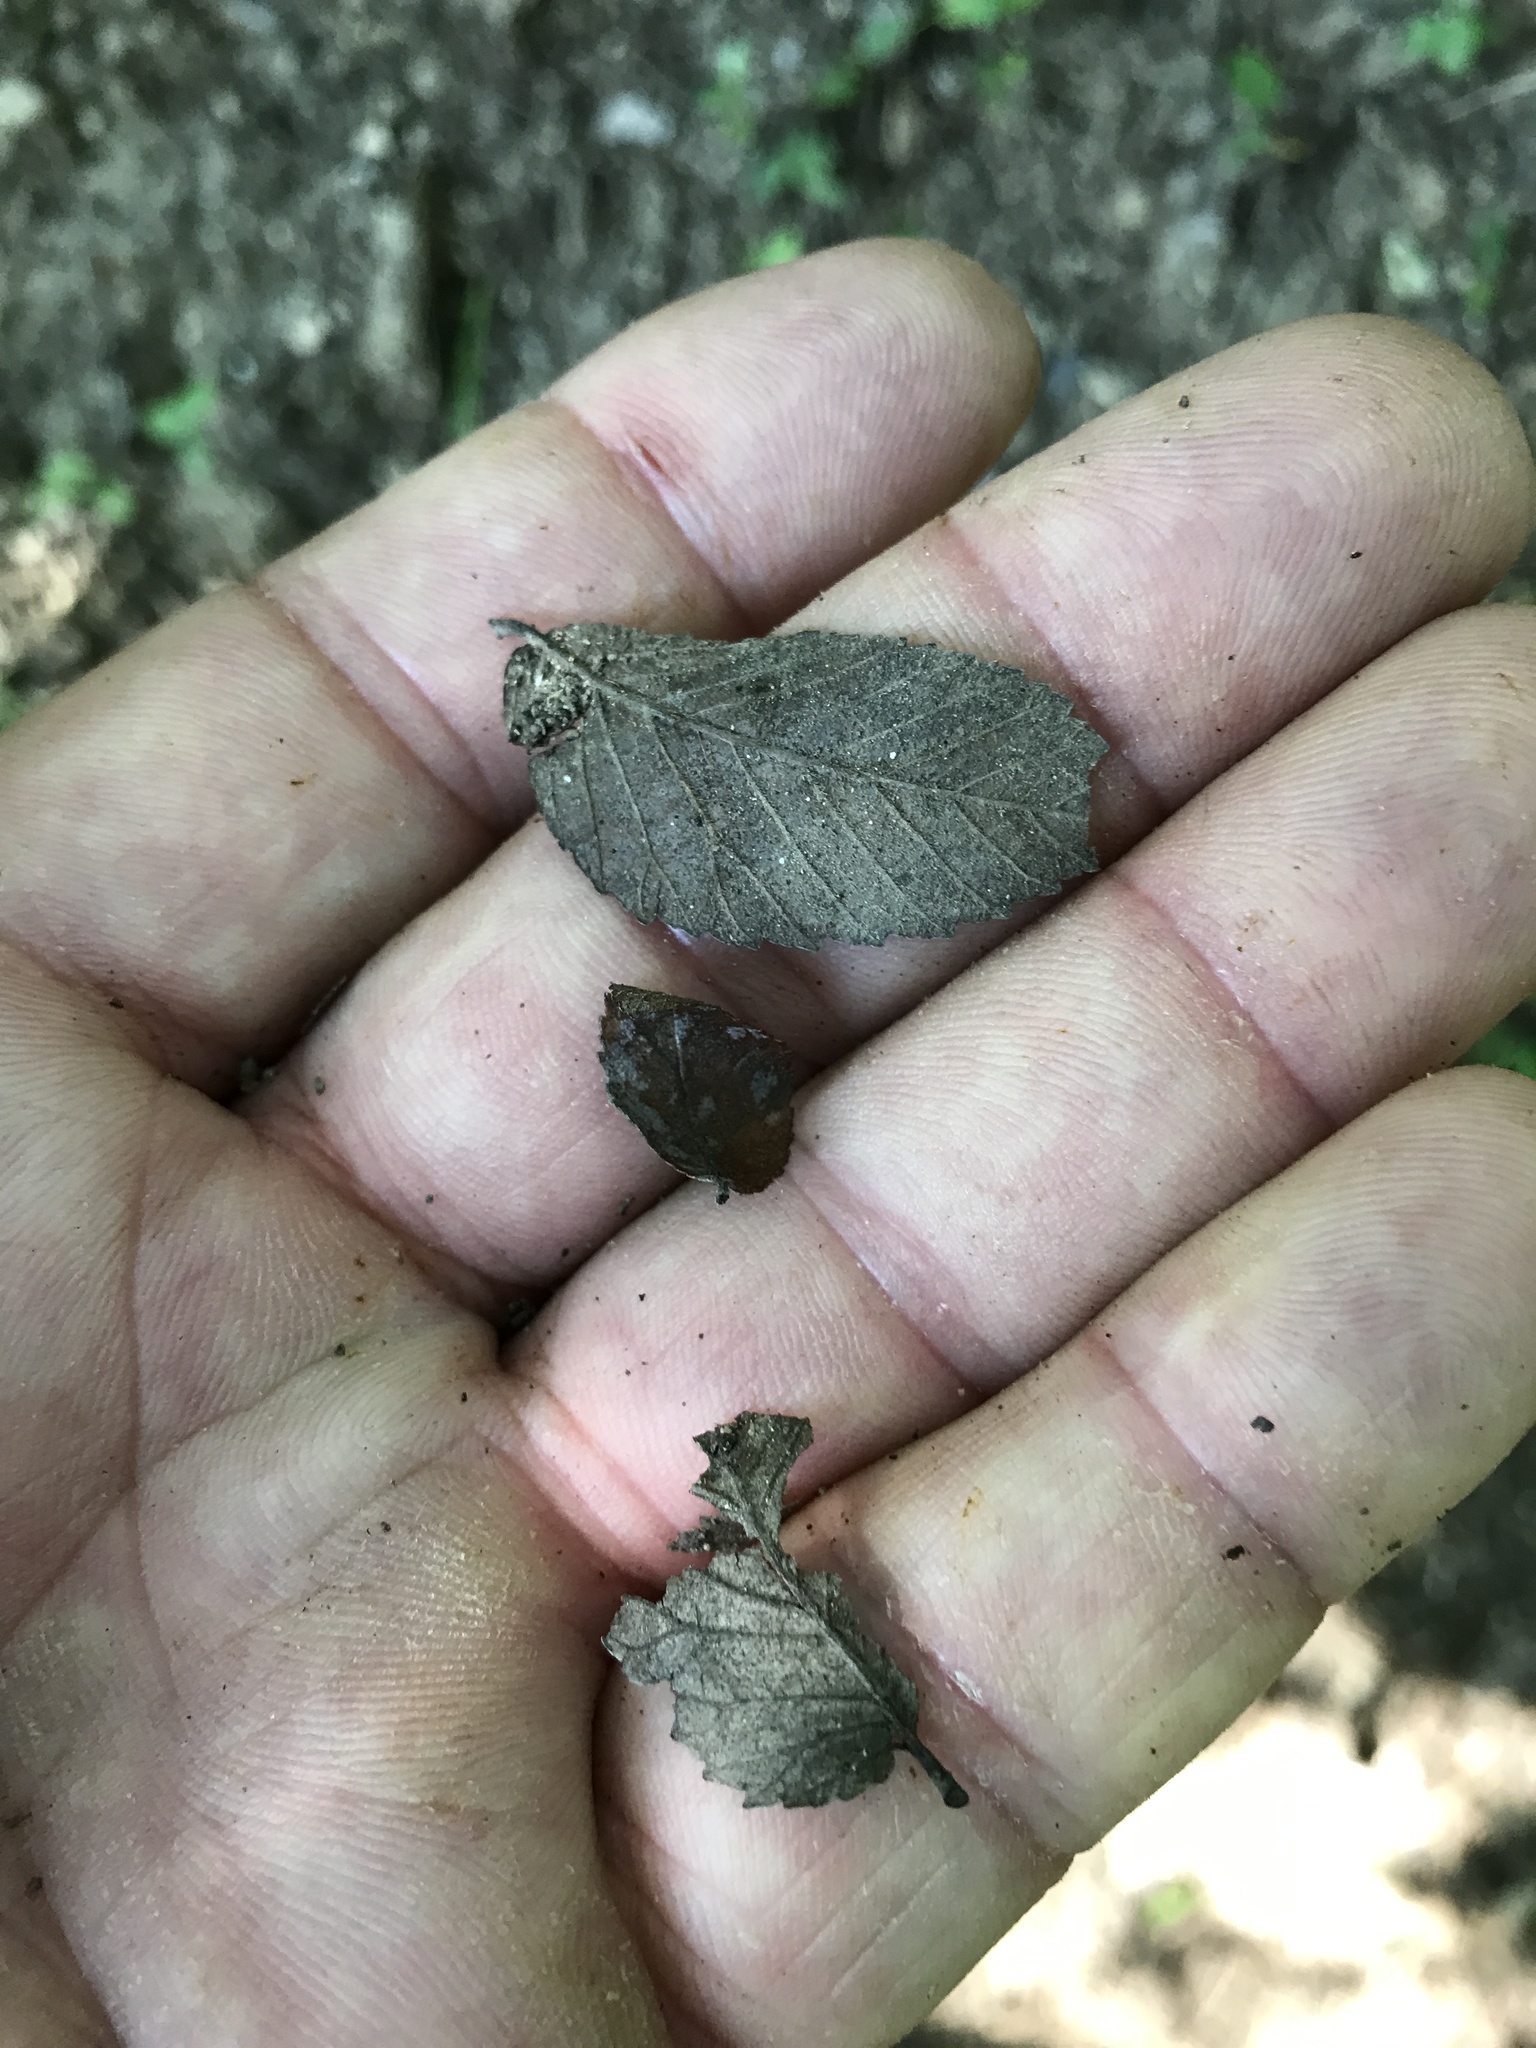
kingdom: Plantae
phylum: Tracheophyta
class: Magnoliopsida
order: Rosales
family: Ulmaceae
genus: Ulmus
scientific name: Ulmus crassifolia
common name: Basket elm
